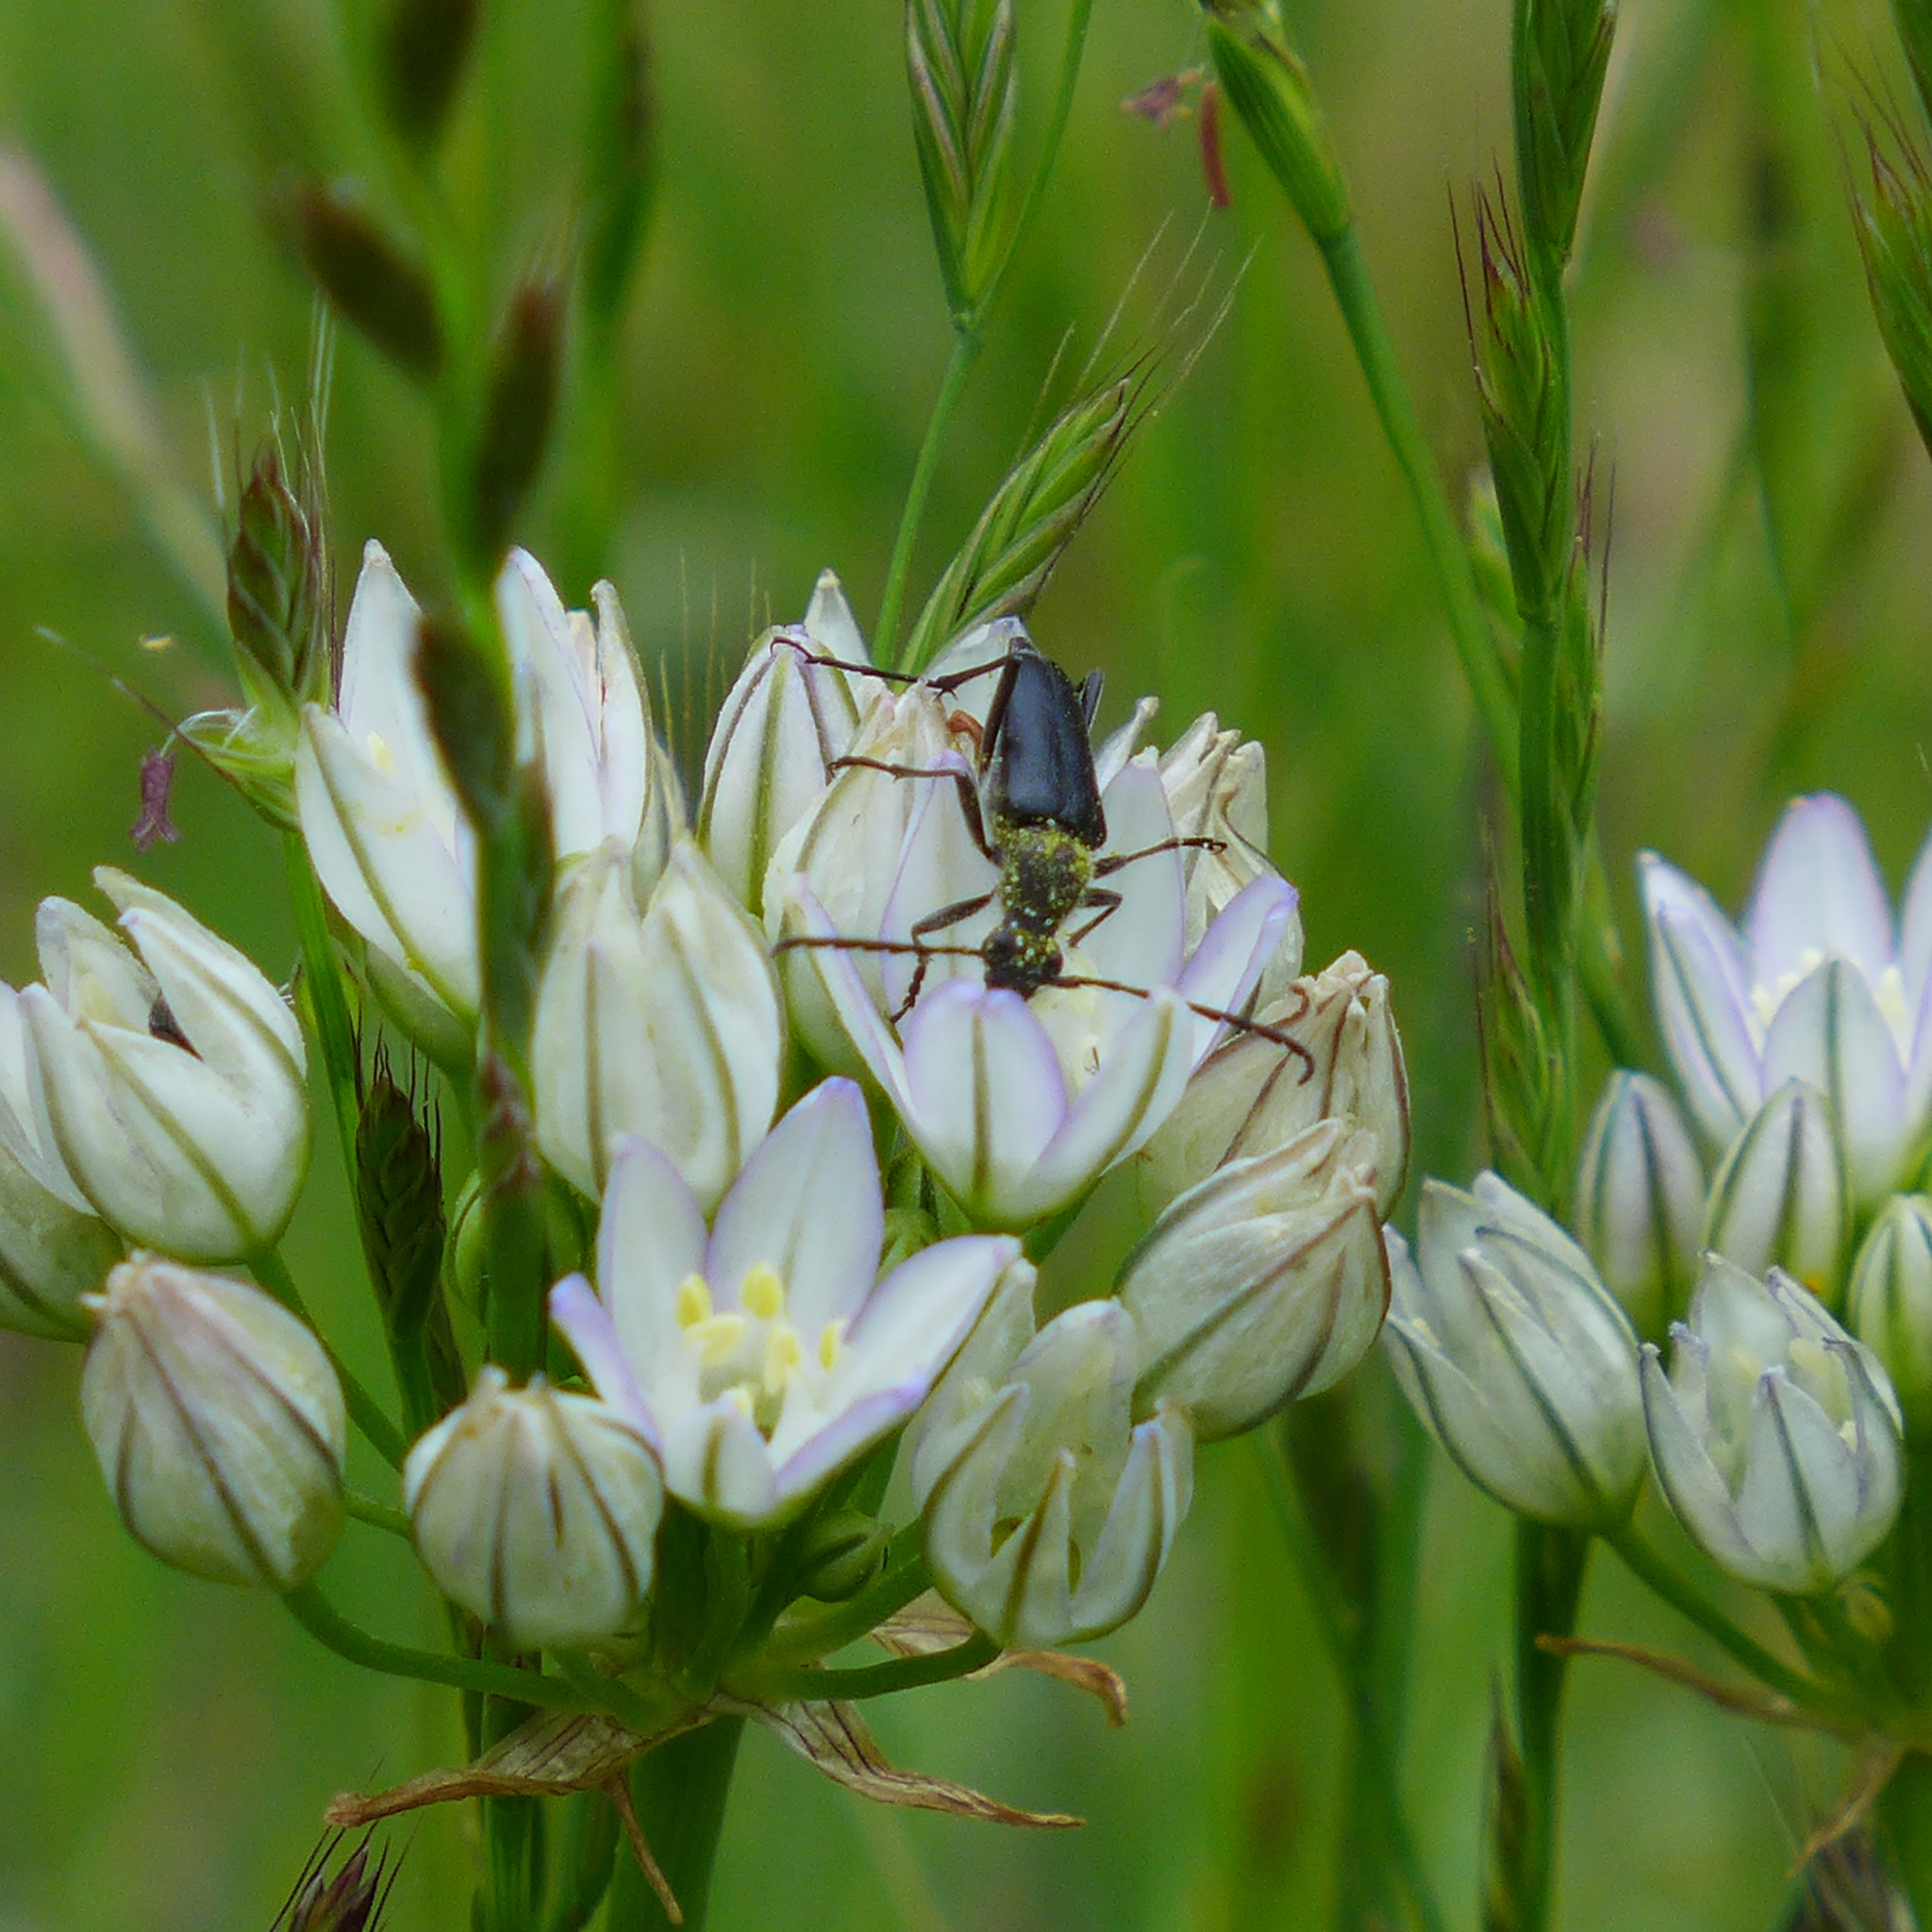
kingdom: Plantae
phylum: Tracheophyta
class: Liliopsida
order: Asparagales
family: Asparagaceae
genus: Triteleia
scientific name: Triteleia hyacinthina
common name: White brodiaea
